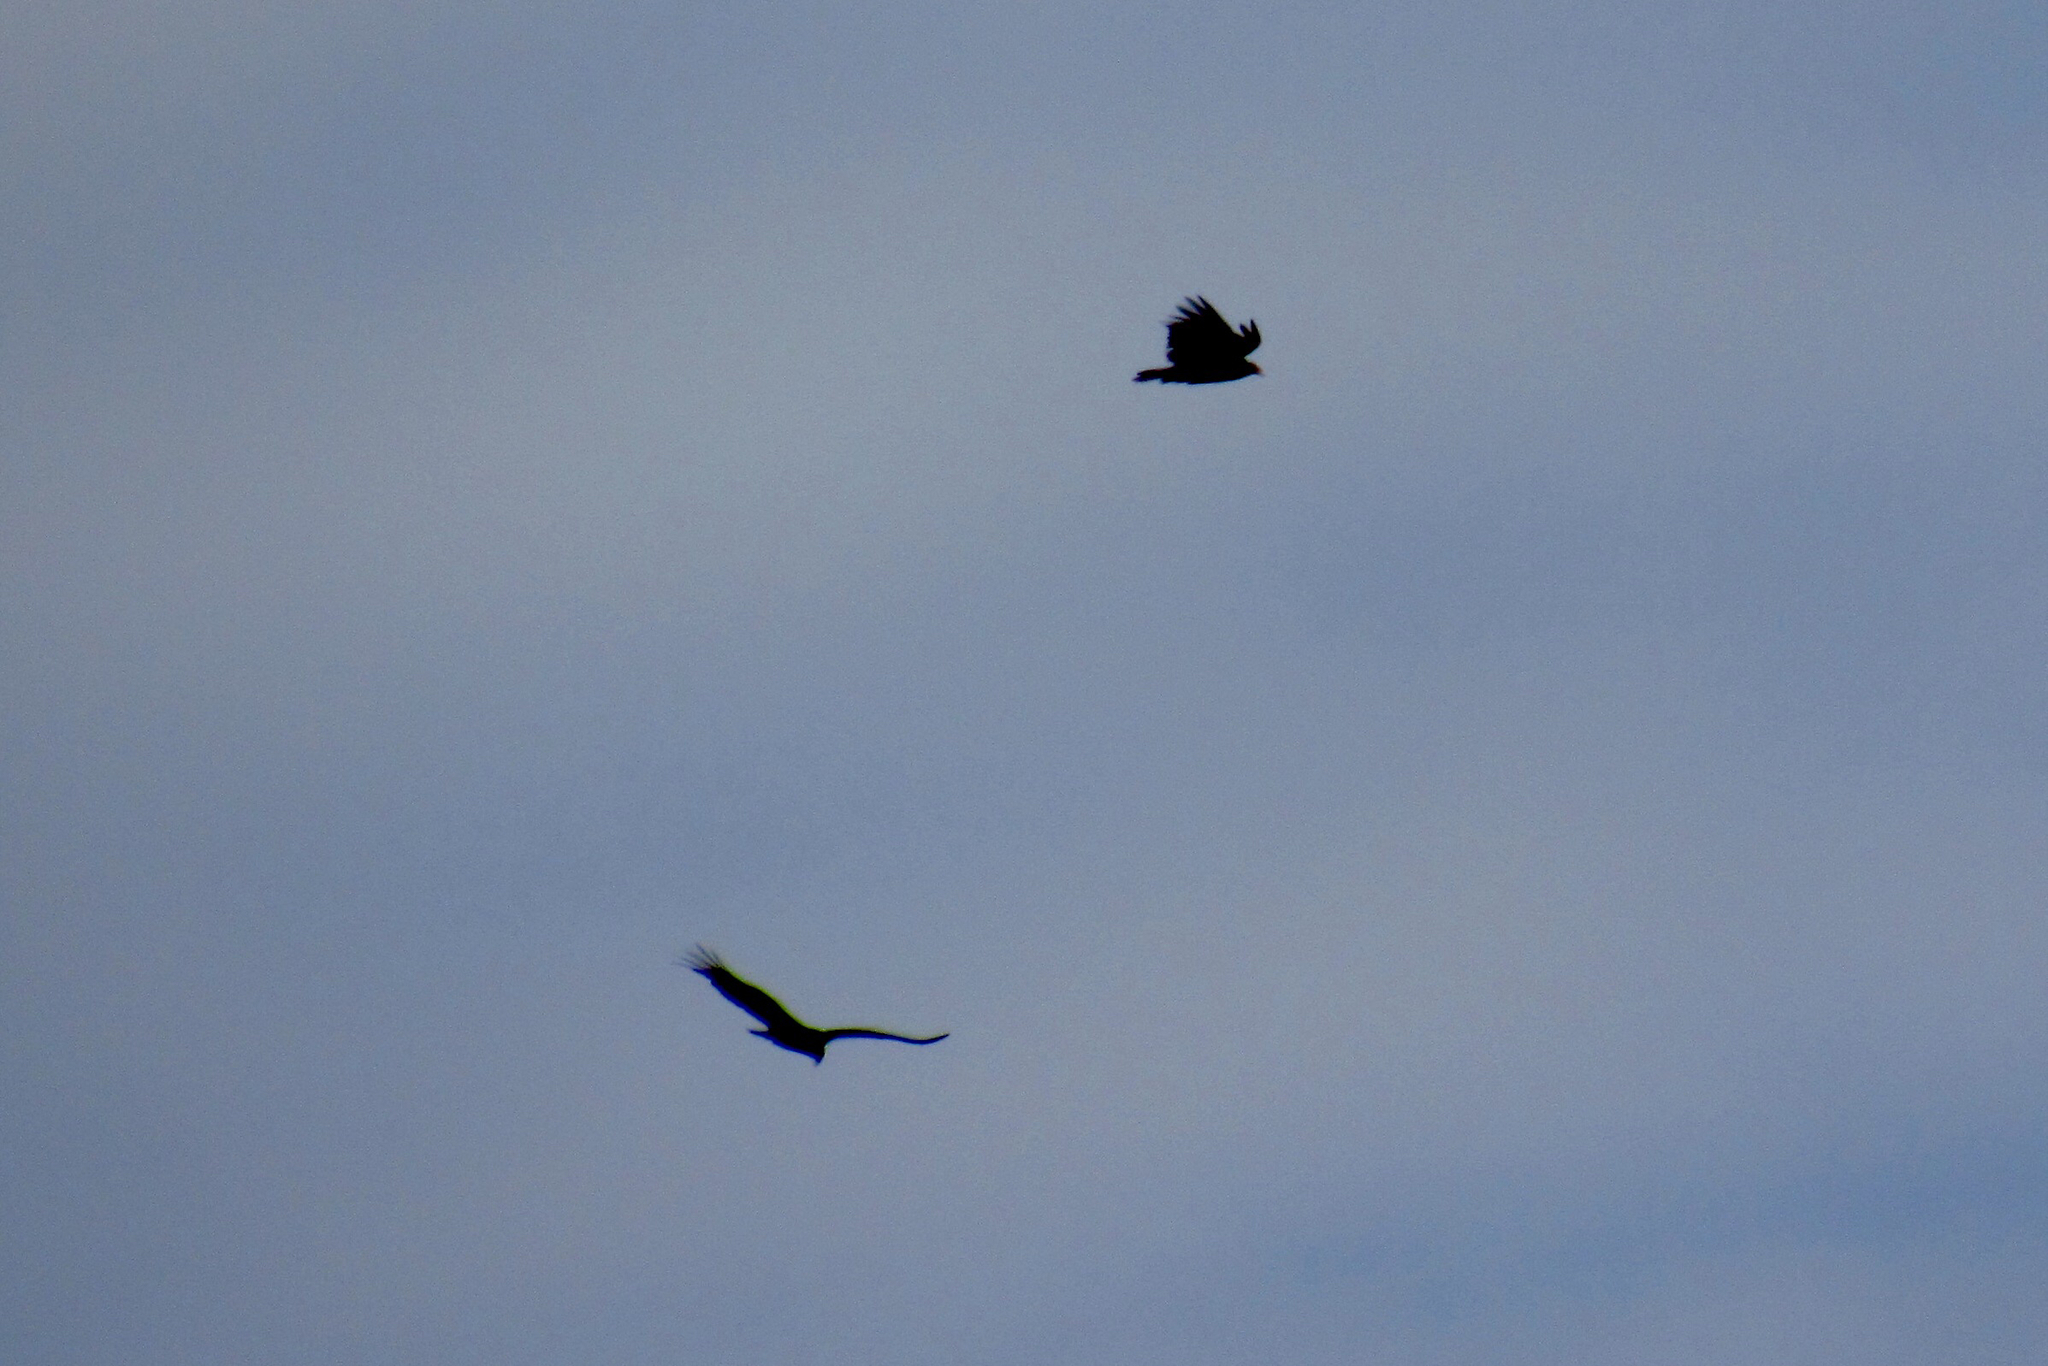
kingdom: Animalia
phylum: Chordata
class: Aves
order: Accipitriformes
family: Cathartidae
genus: Cathartes
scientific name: Cathartes aura
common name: Turkey vulture
